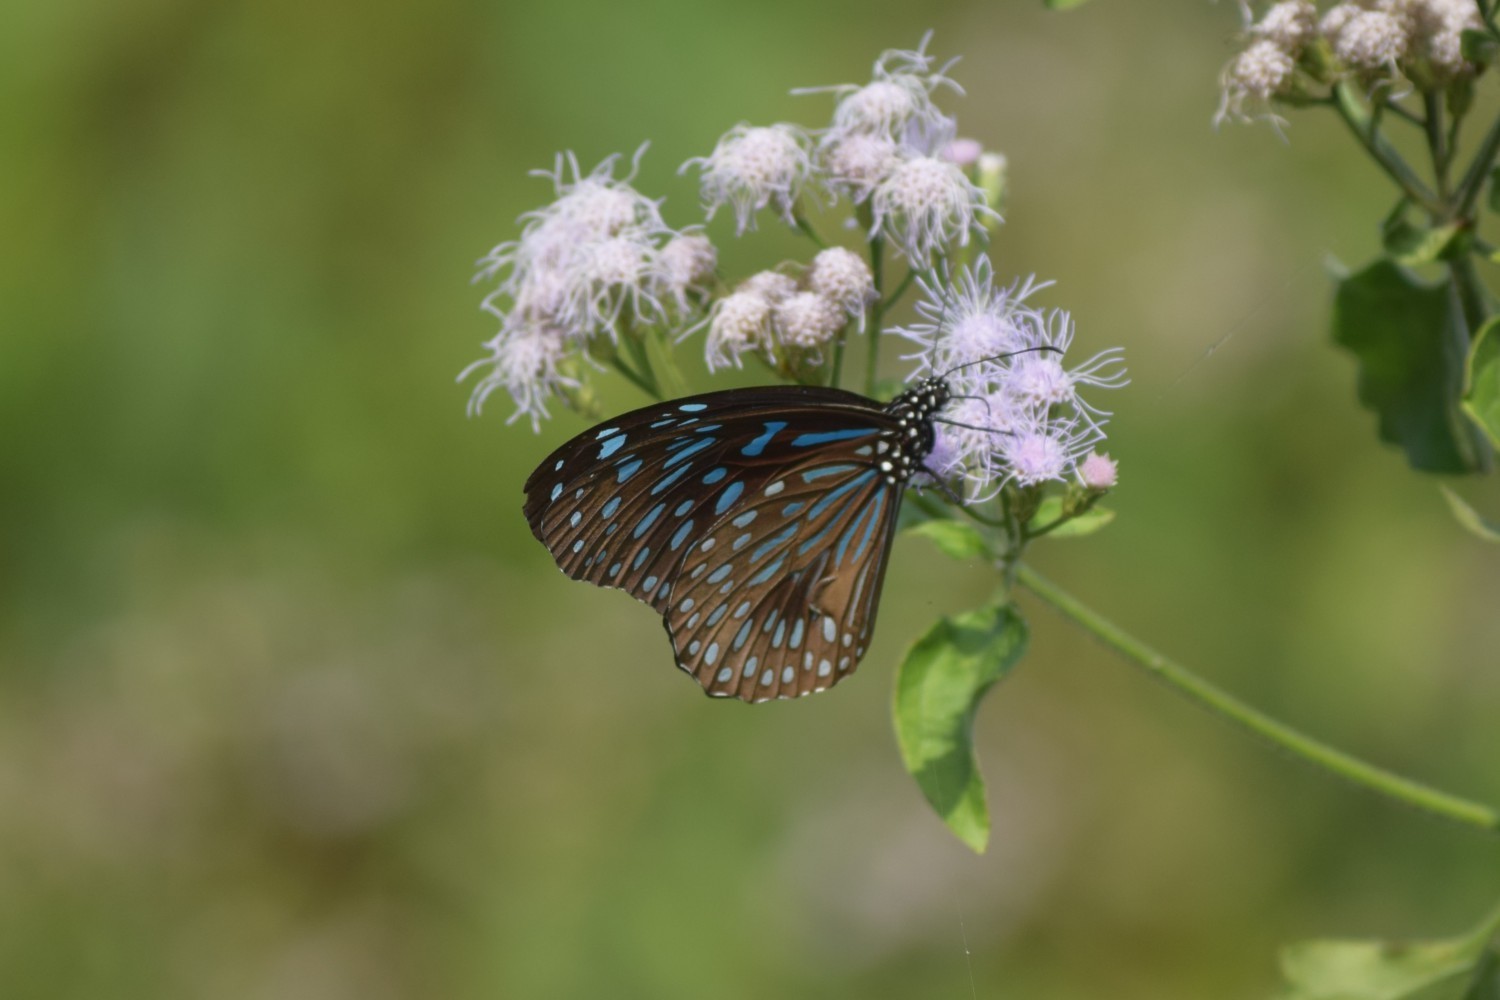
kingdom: Animalia
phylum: Arthropoda
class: Insecta
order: Lepidoptera
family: Nymphalidae
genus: Tirumala
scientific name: Tirumala septentrionis
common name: Dark blue tiger butterfly
